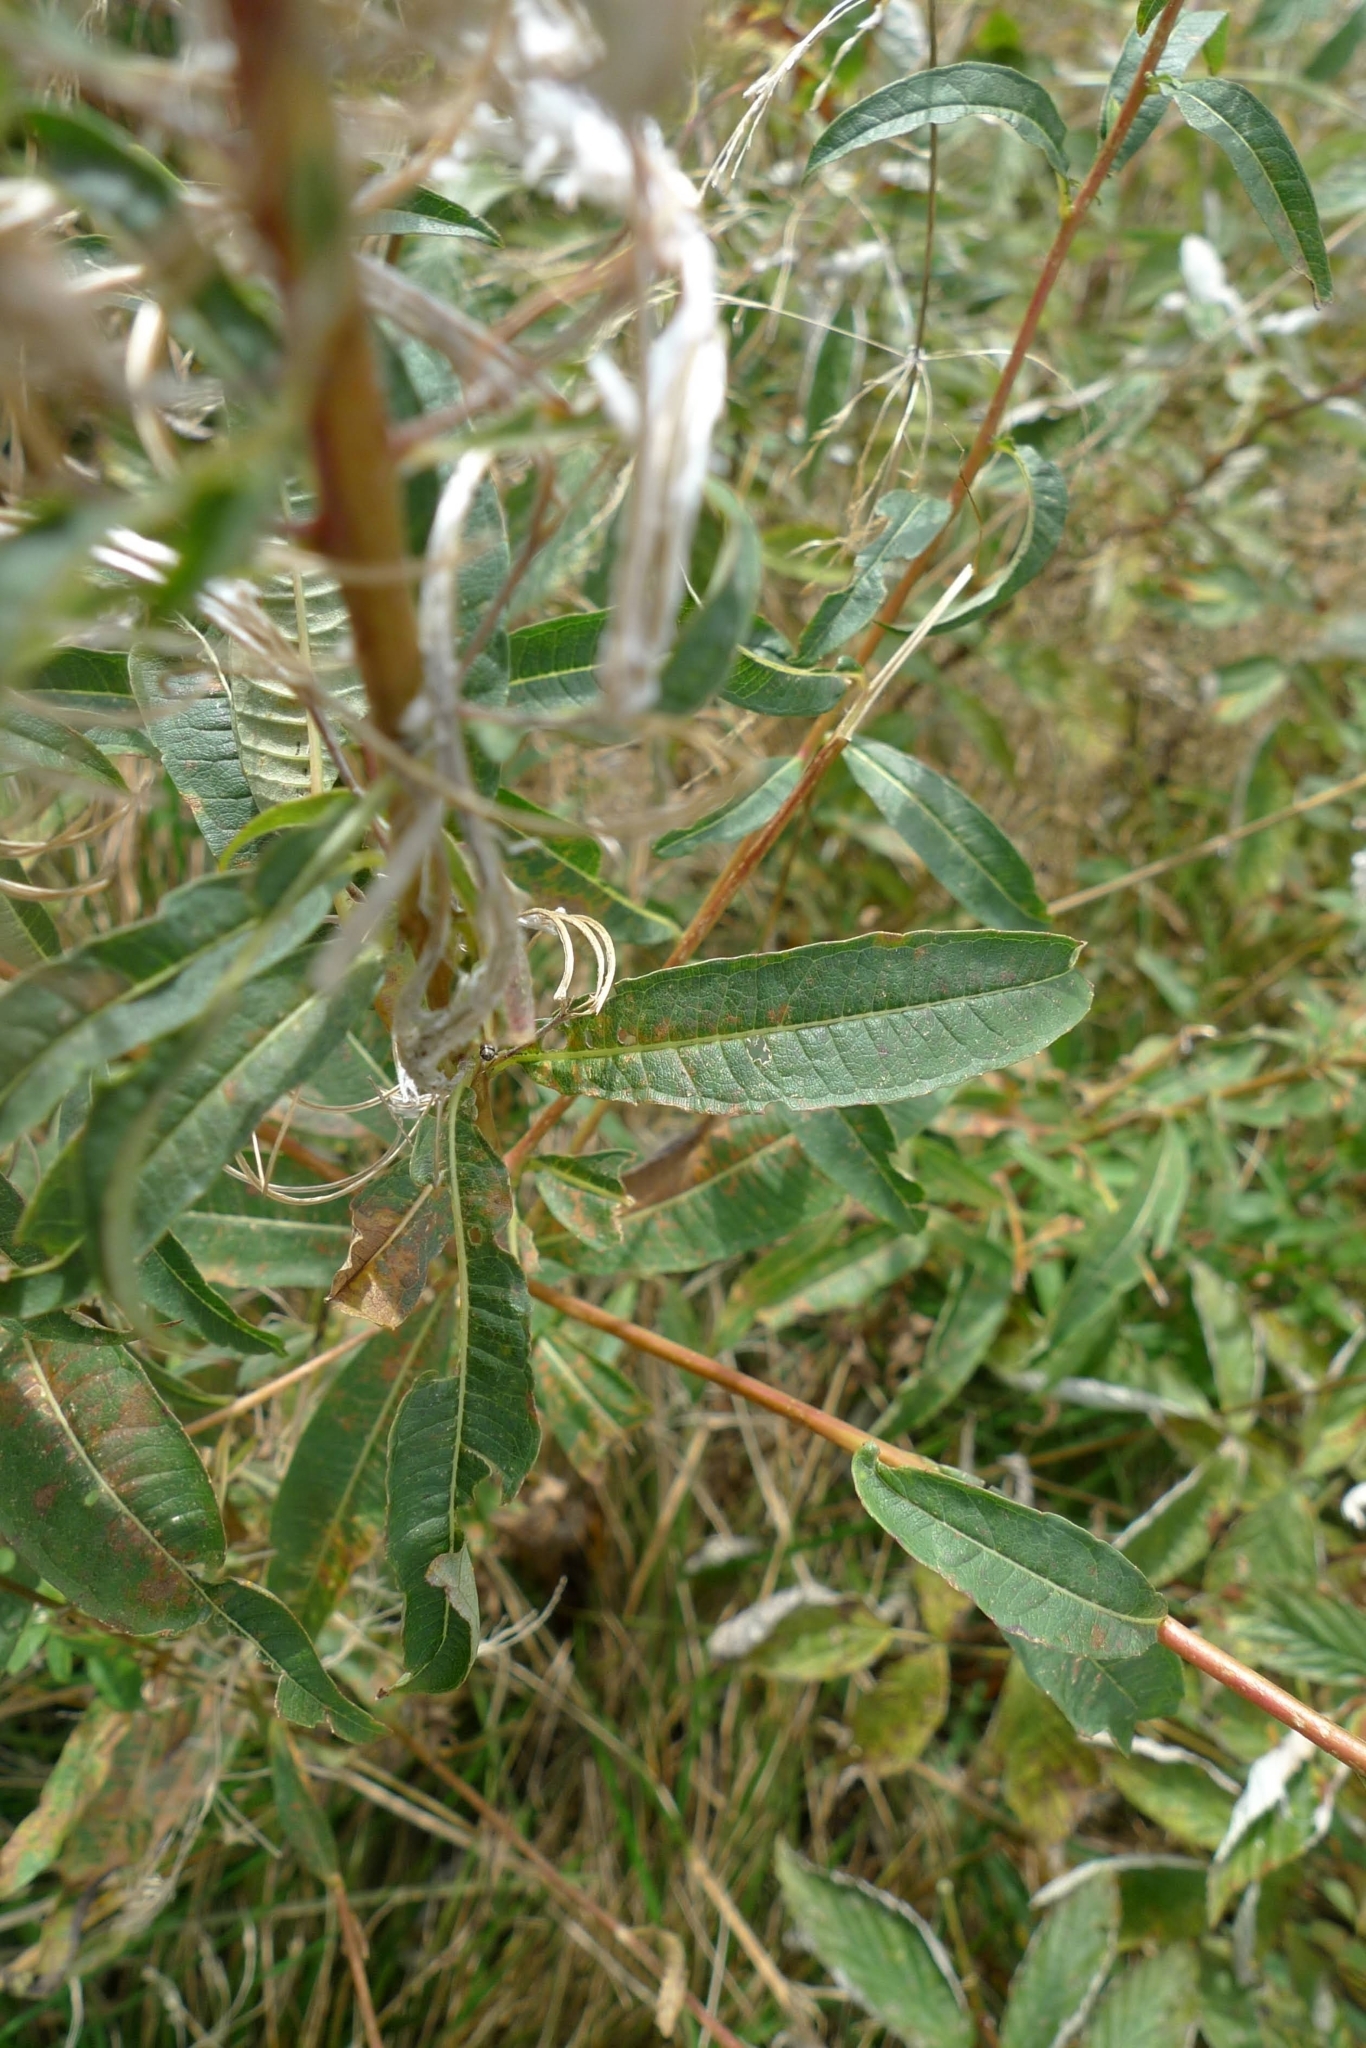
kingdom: Plantae
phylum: Tracheophyta
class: Magnoliopsida
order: Myrtales
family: Onagraceae
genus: Chamaenerion
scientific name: Chamaenerion angustifolium
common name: Fireweed
